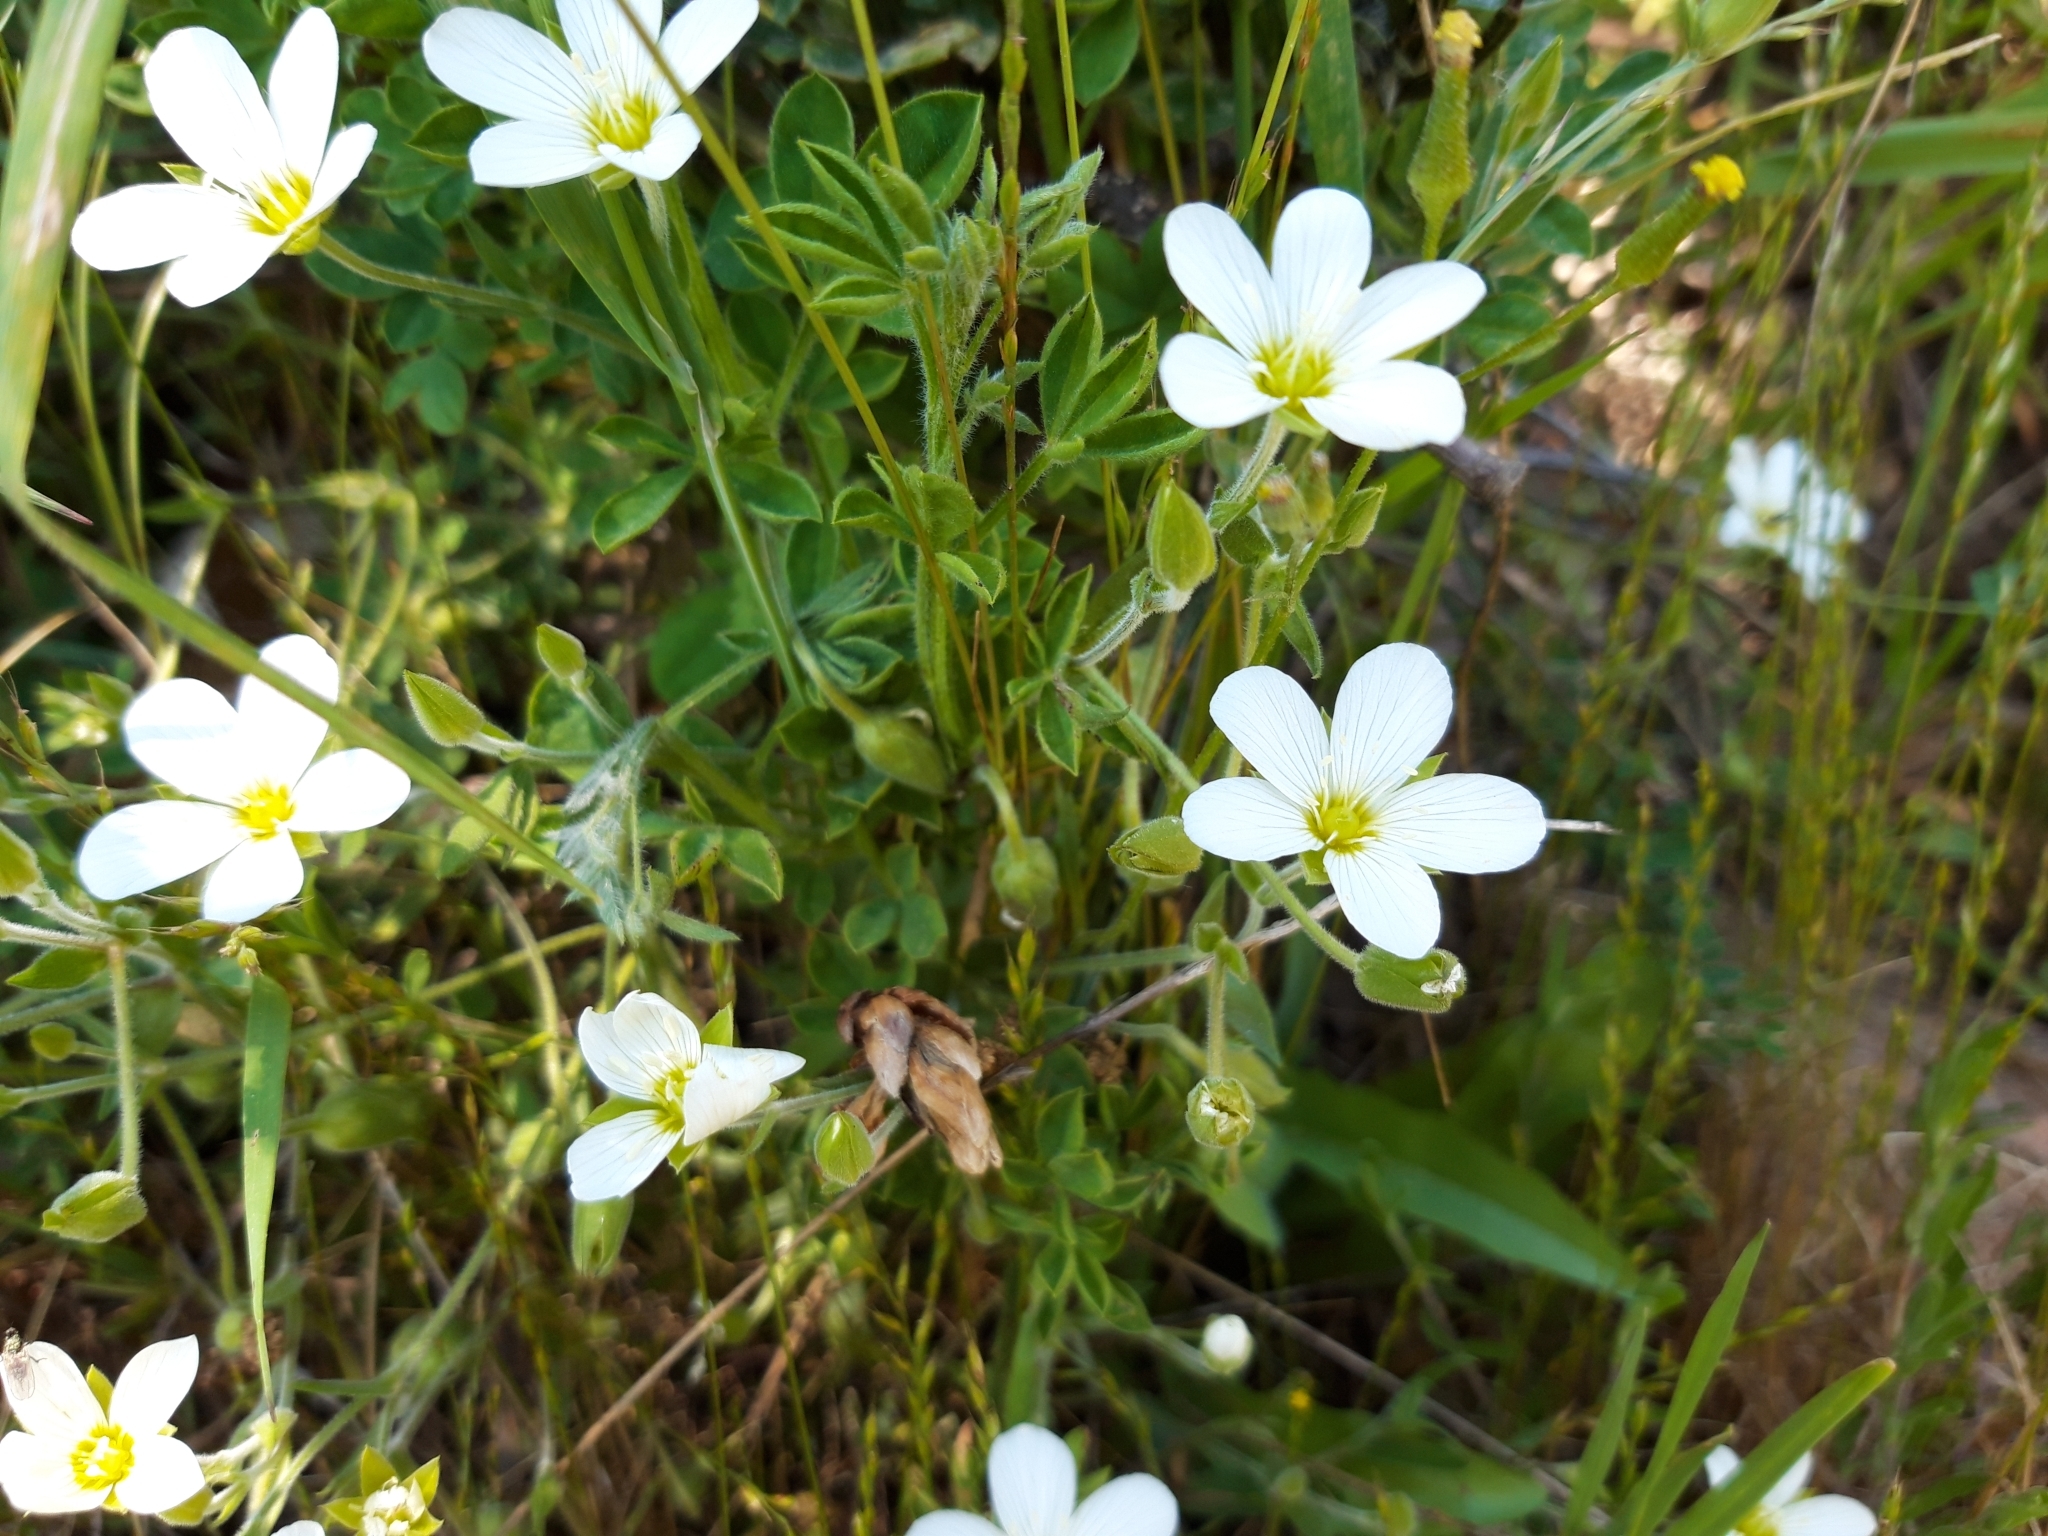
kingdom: Plantae
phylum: Tracheophyta
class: Magnoliopsida
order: Caryophyllales
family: Caryophyllaceae
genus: Arenaria
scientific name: Arenaria montana
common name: Mountain sandwort
